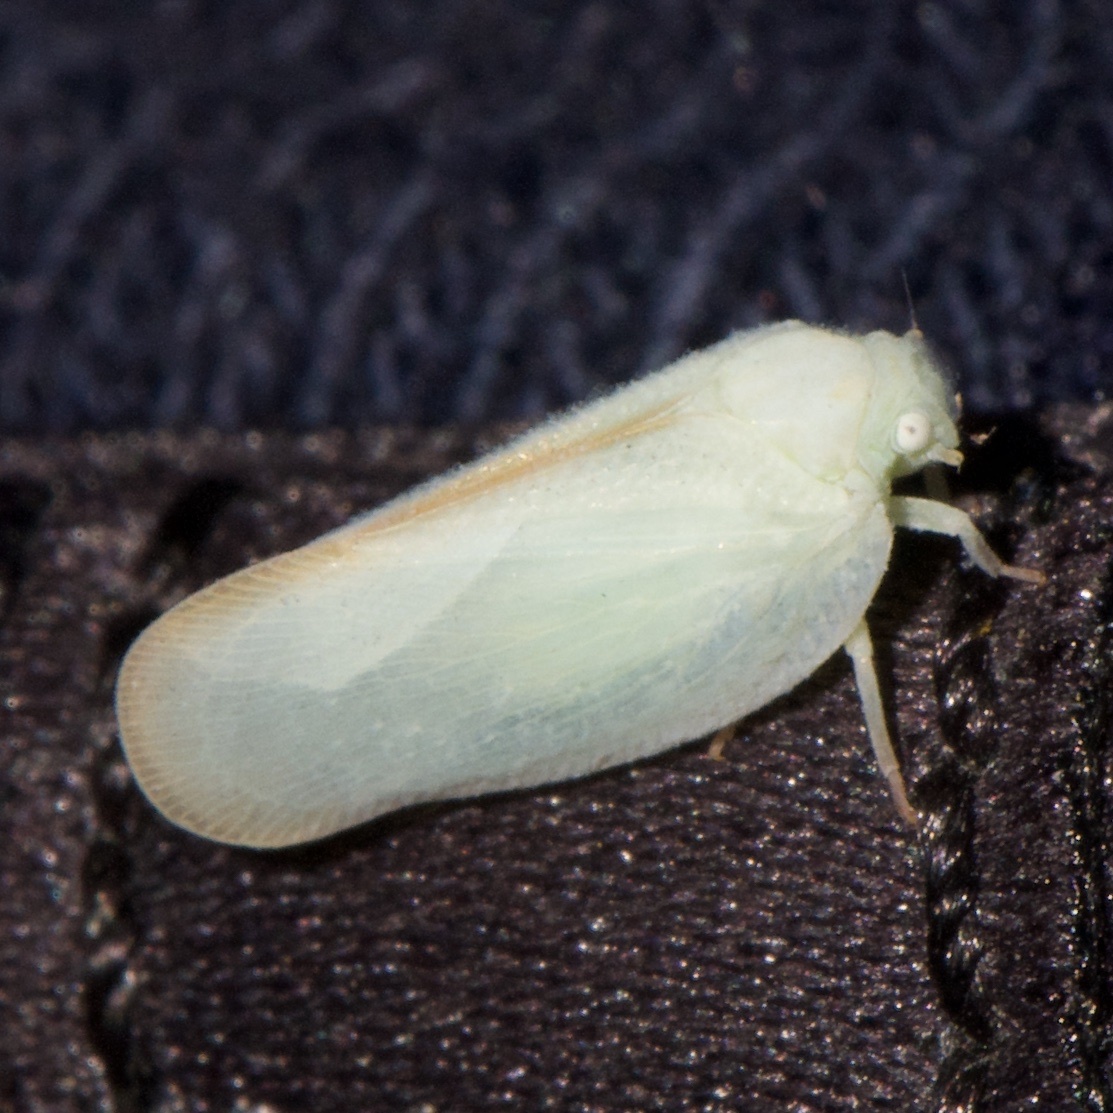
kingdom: Animalia
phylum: Arthropoda
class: Insecta
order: Hemiptera
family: Flatidae
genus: Ormenoides
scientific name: Ormenoides venusta
